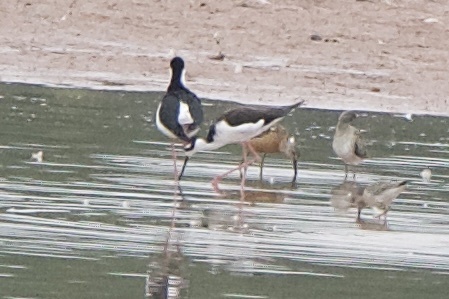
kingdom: Animalia
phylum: Chordata
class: Aves
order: Charadriiformes
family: Recurvirostridae
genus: Himantopus
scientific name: Himantopus mexicanus
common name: Black-necked stilt
